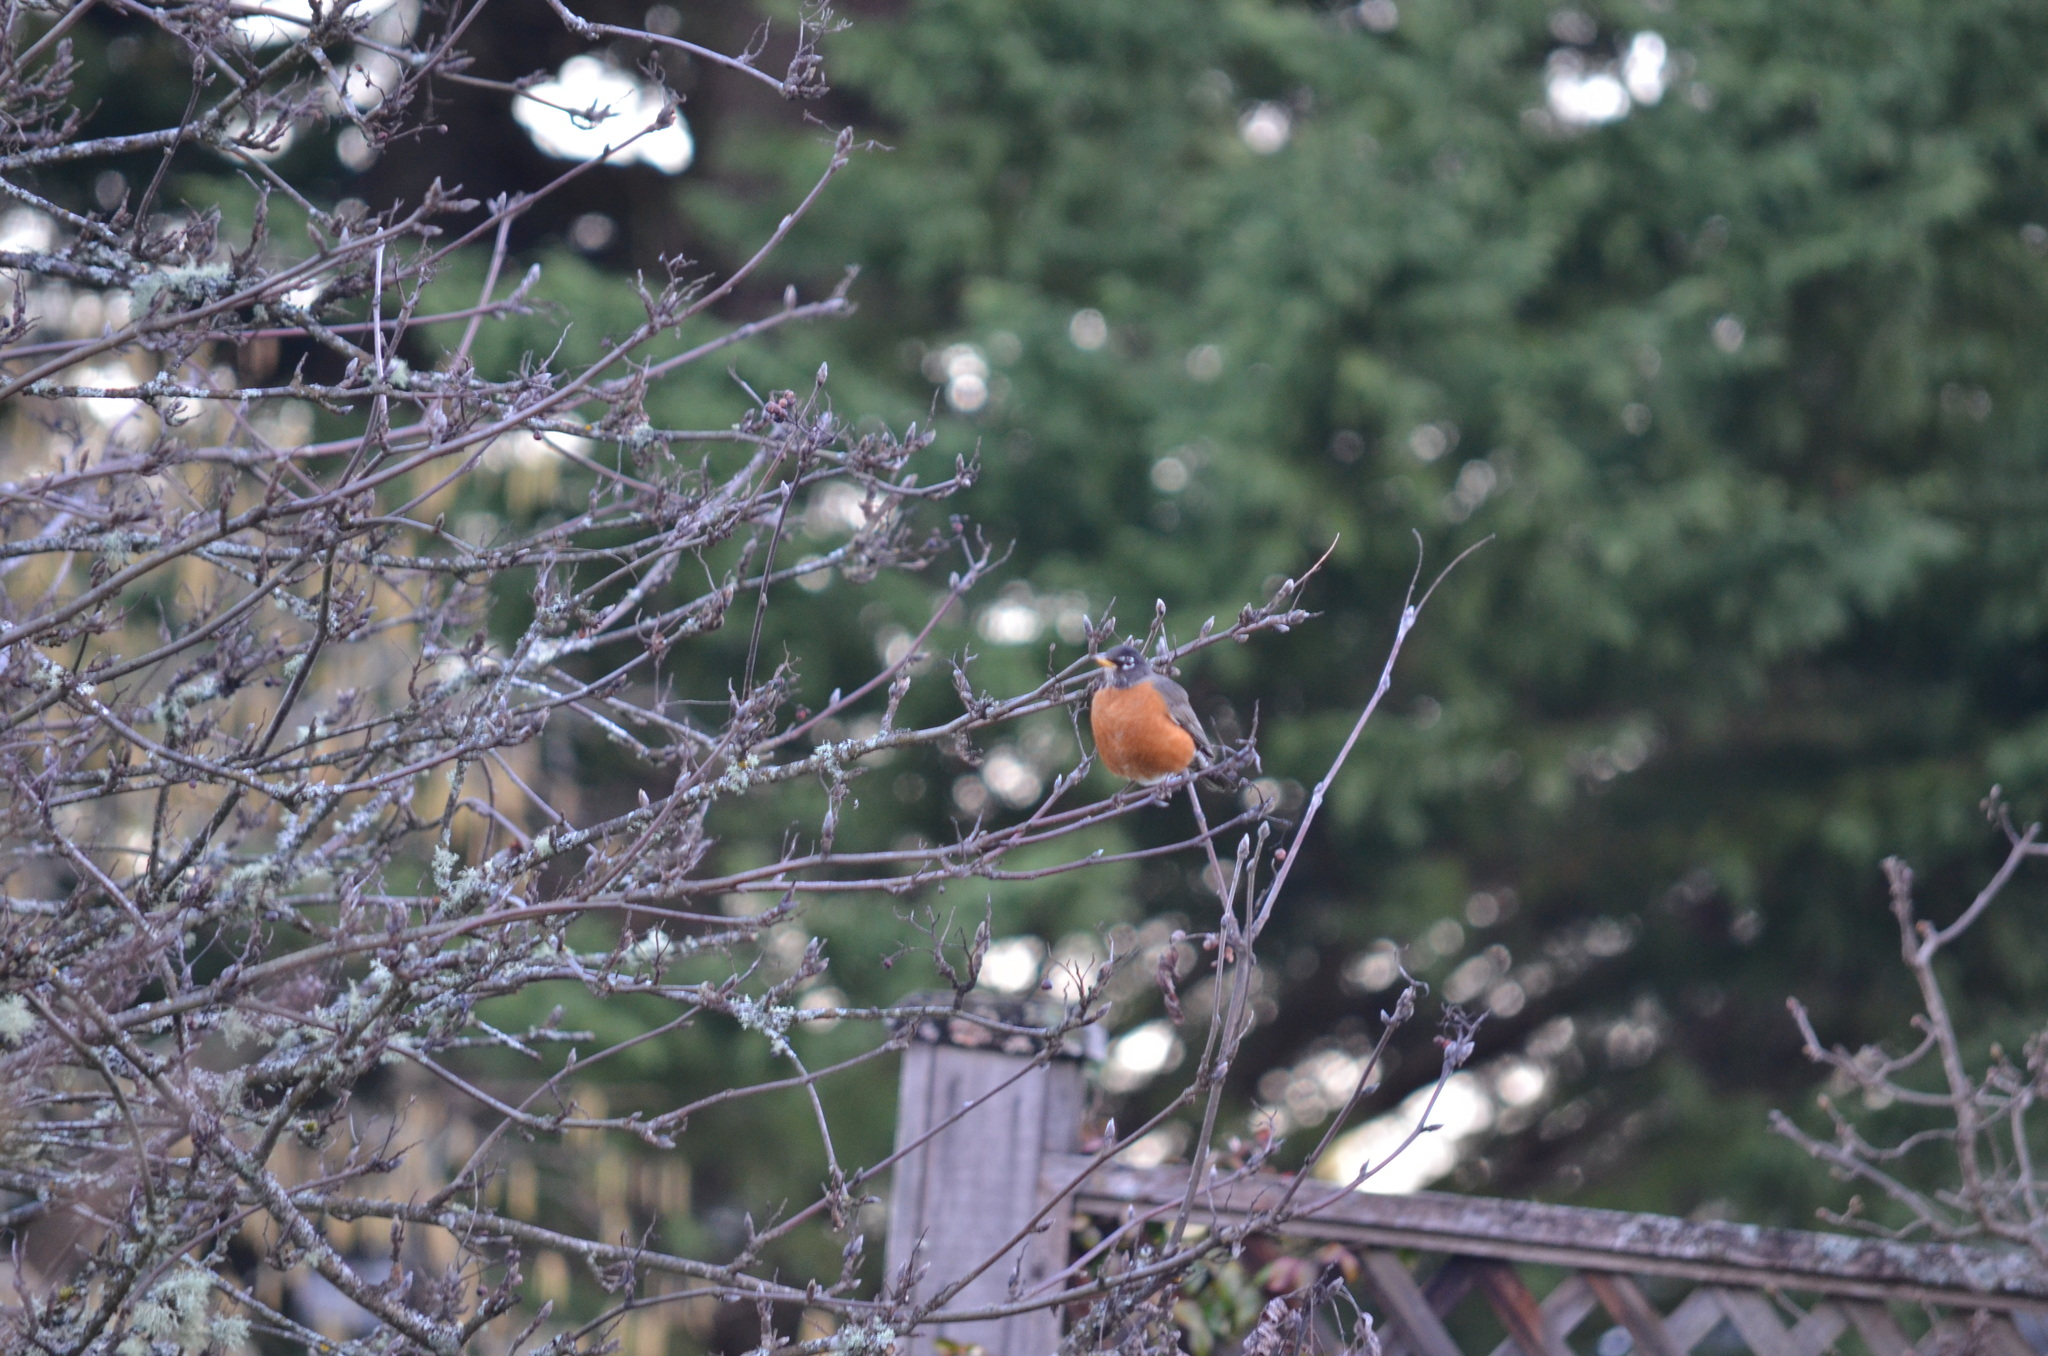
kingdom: Animalia
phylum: Chordata
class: Aves
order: Passeriformes
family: Turdidae
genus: Turdus
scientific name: Turdus migratorius
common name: American robin
